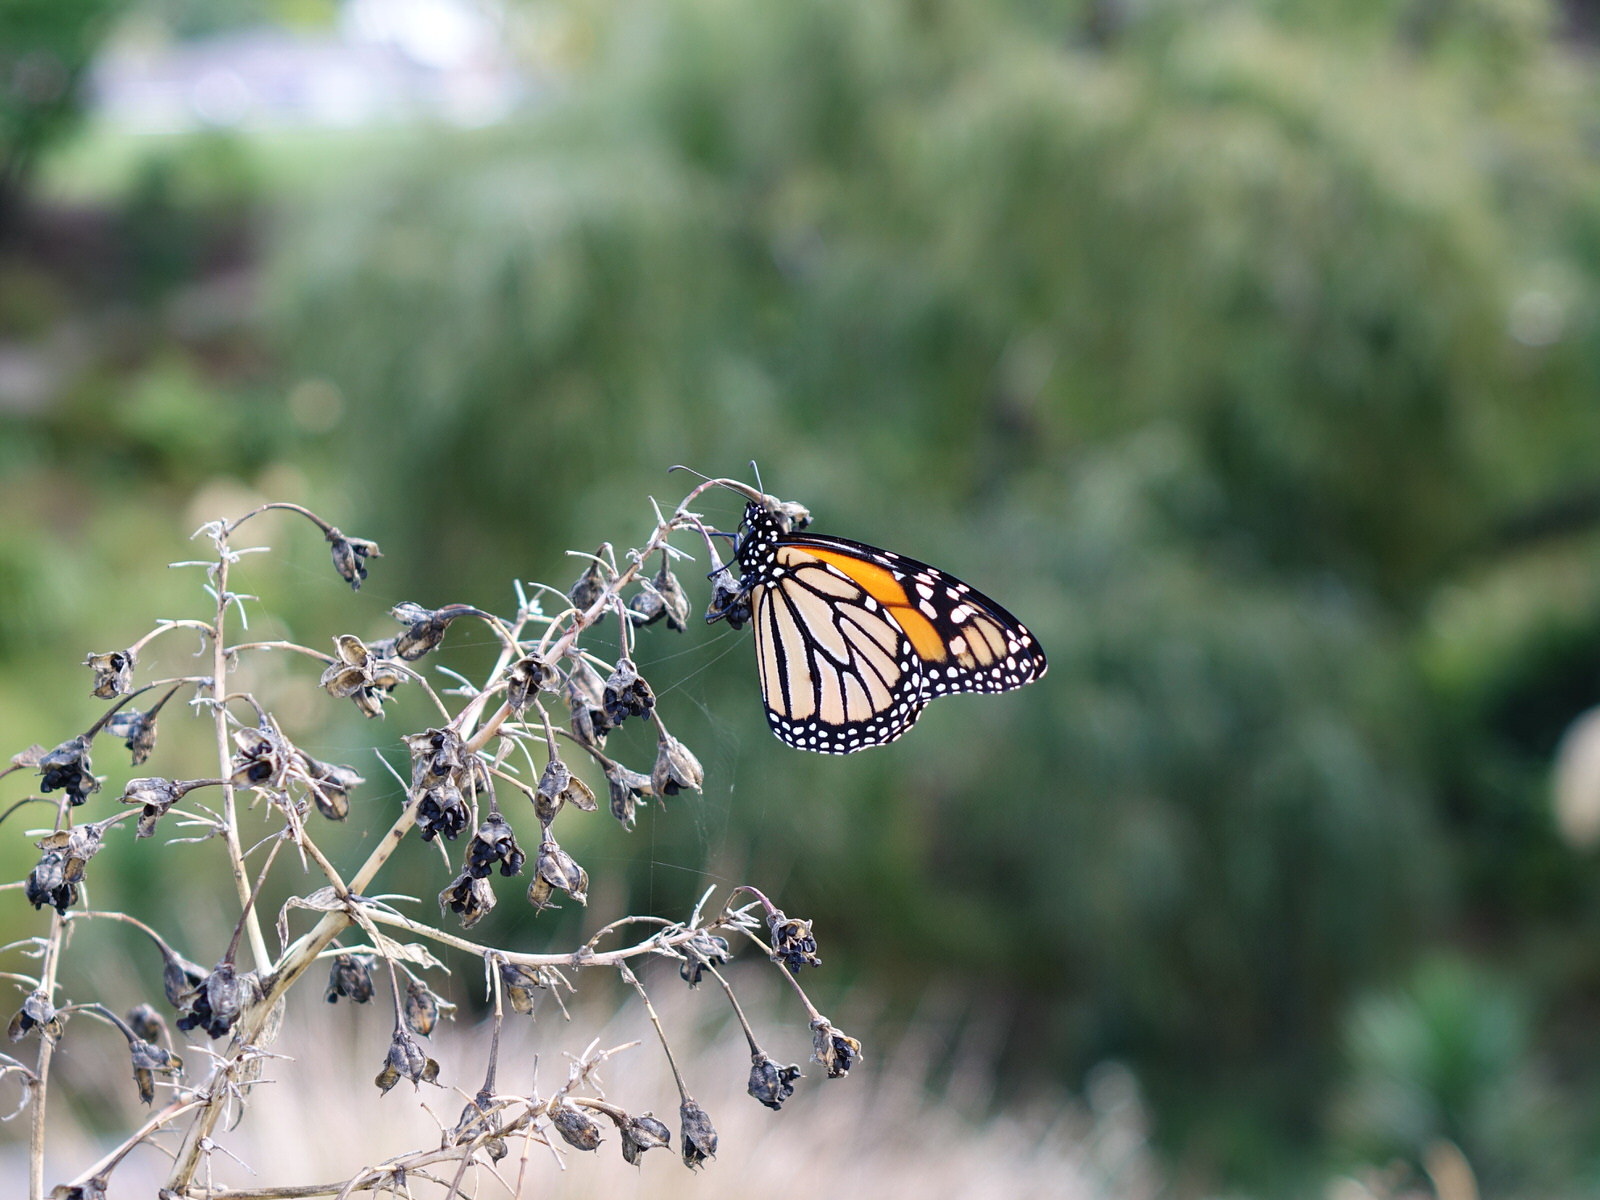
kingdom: Animalia
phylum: Arthropoda
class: Insecta
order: Lepidoptera
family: Nymphalidae
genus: Danaus
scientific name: Danaus plexippus
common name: Monarch
